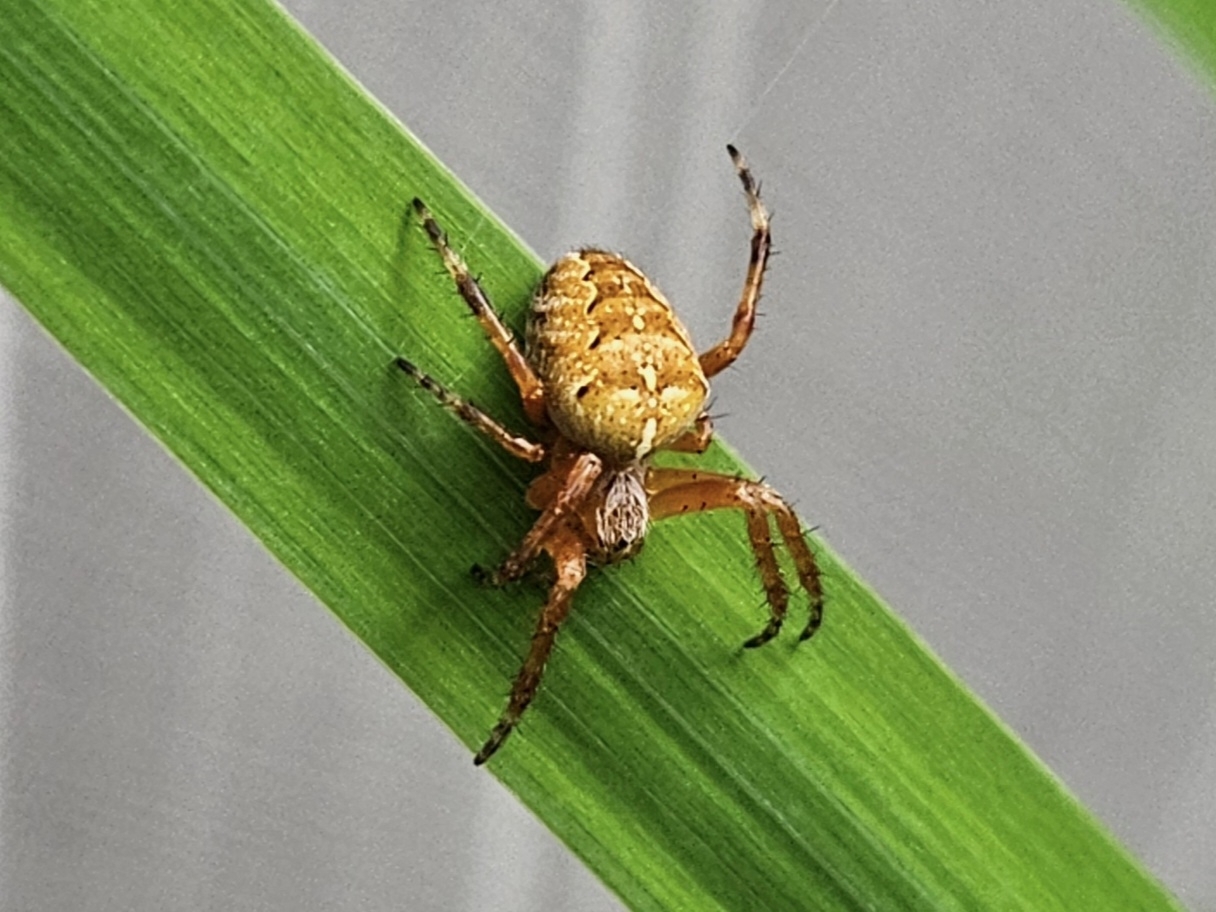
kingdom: Animalia
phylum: Arthropoda
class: Arachnida
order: Araneae
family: Araneidae
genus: Araneus
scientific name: Araneus diadematus
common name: Cross orbweaver
